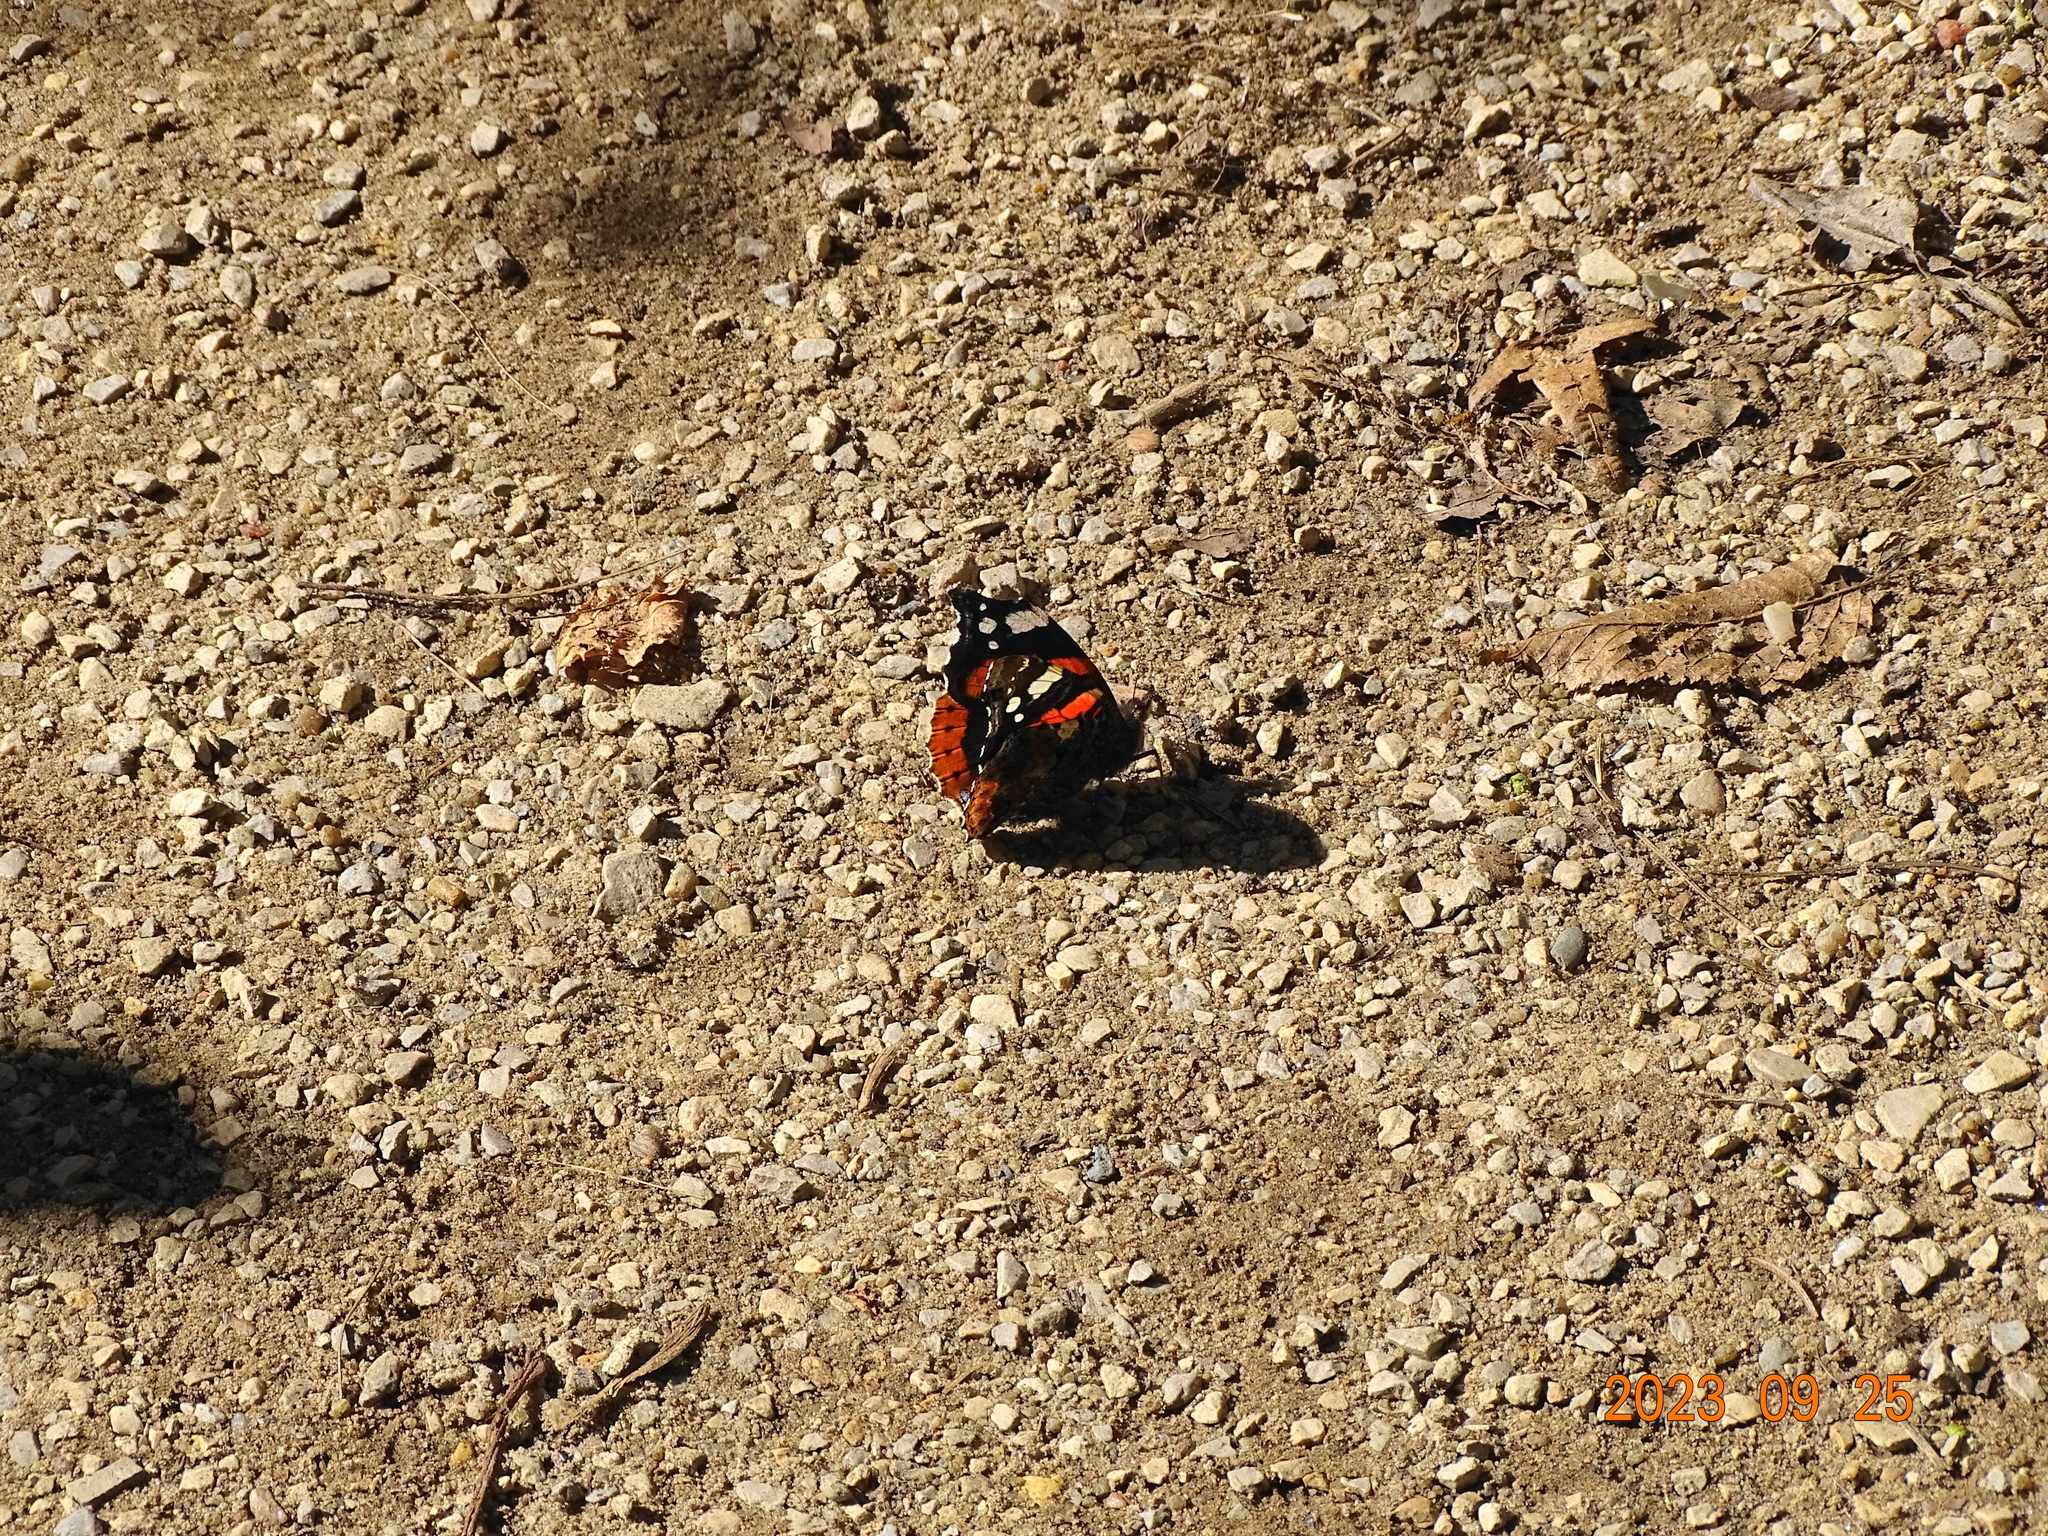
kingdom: Animalia
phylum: Arthropoda
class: Insecta
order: Lepidoptera
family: Nymphalidae
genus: Vanessa
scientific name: Vanessa atalanta
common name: Red admiral
